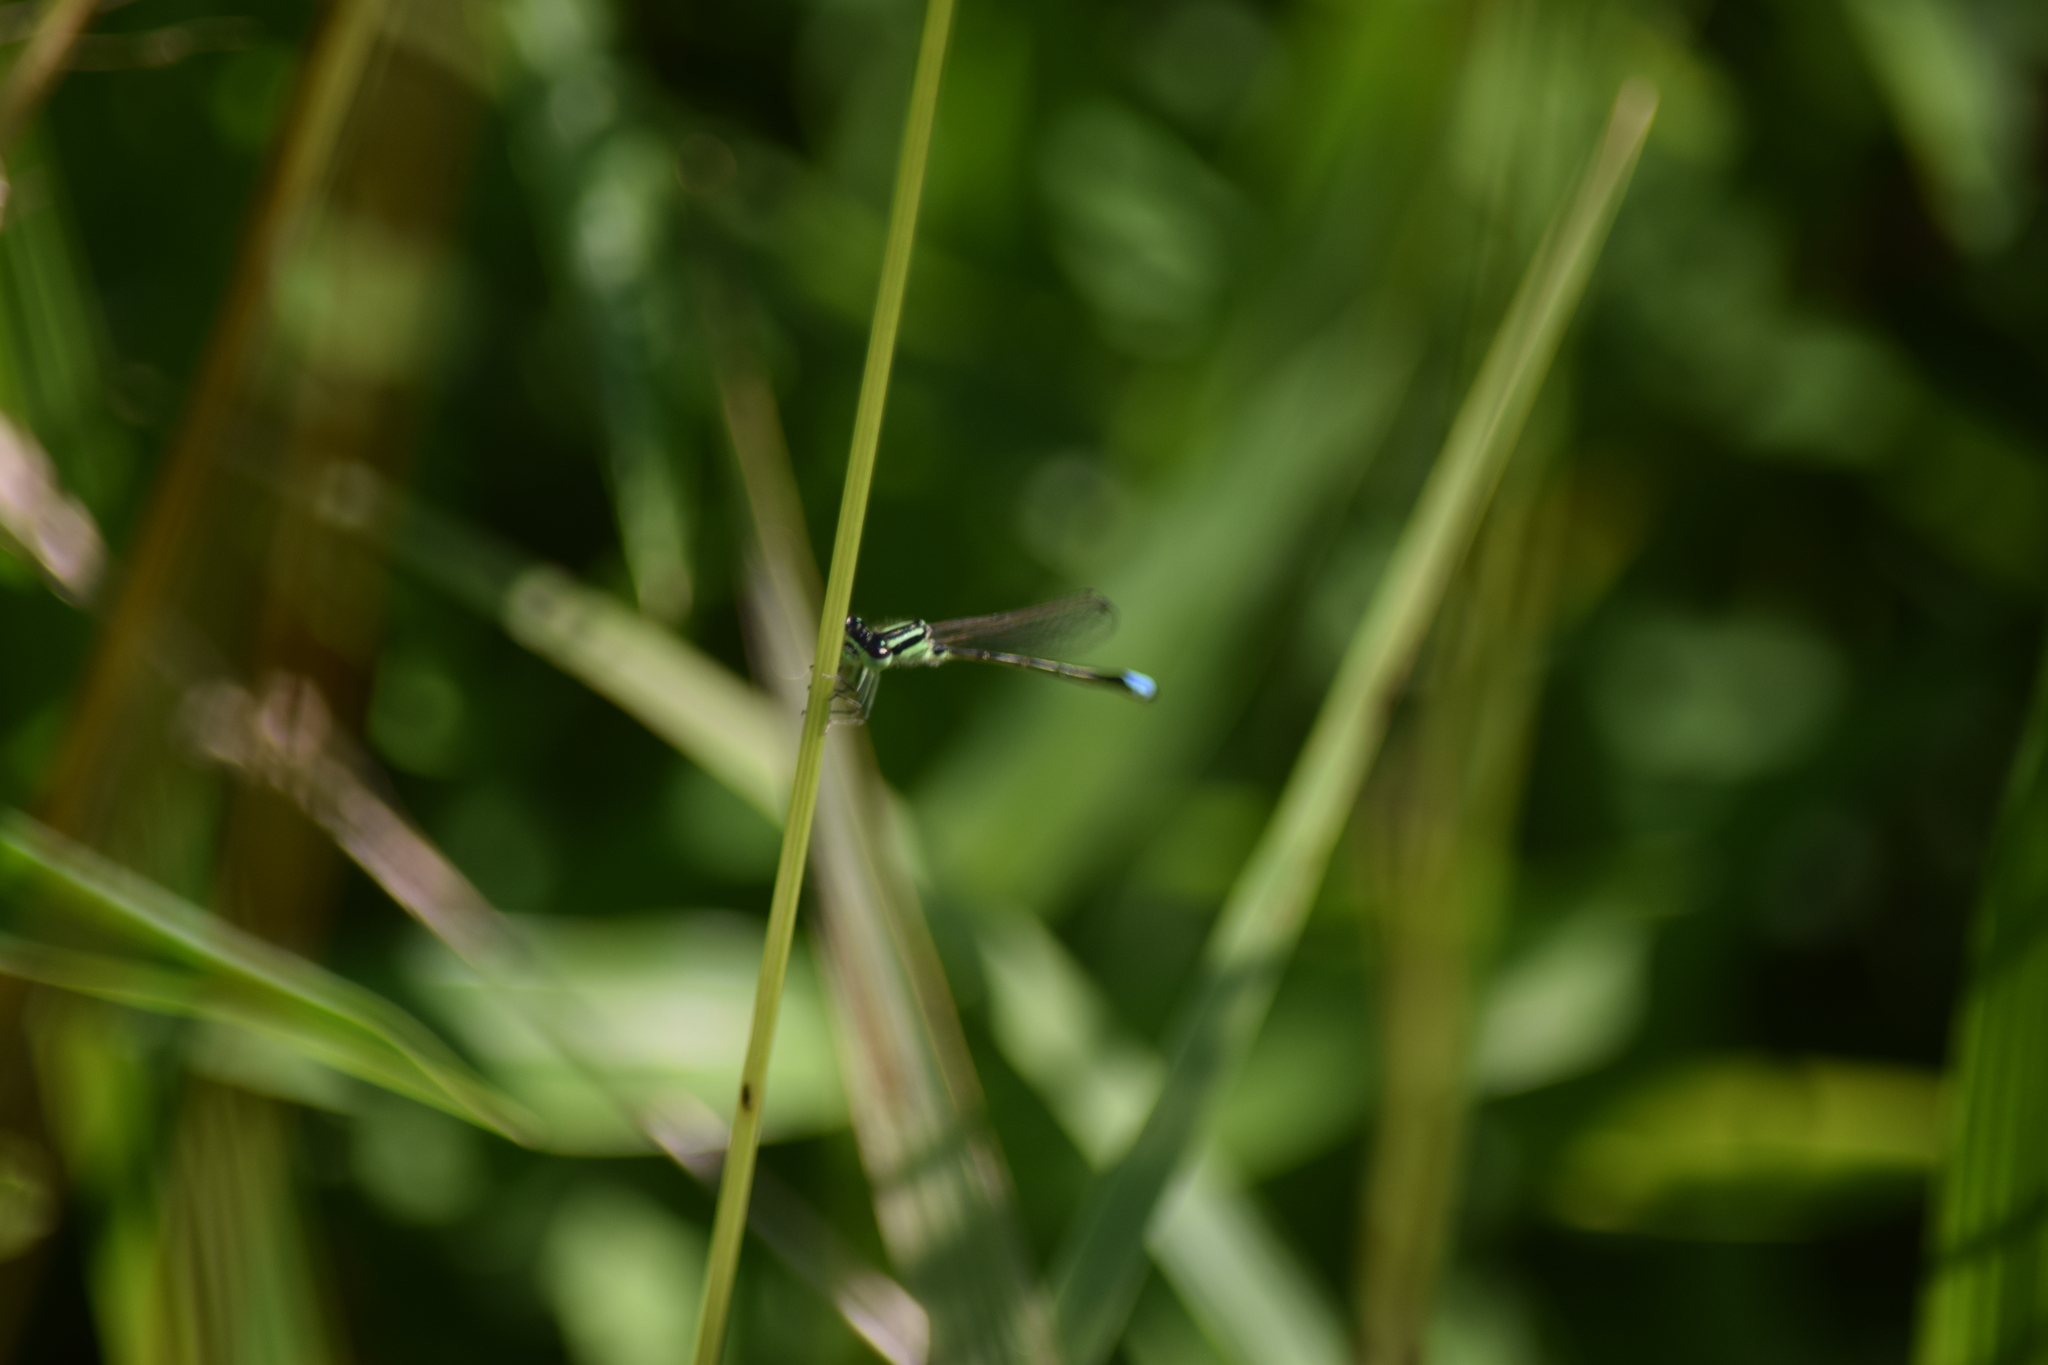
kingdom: Animalia
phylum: Arthropoda
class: Insecta
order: Odonata
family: Coenagrionidae
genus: Ischnura
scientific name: Ischnura verticalis
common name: Eastern forktail
